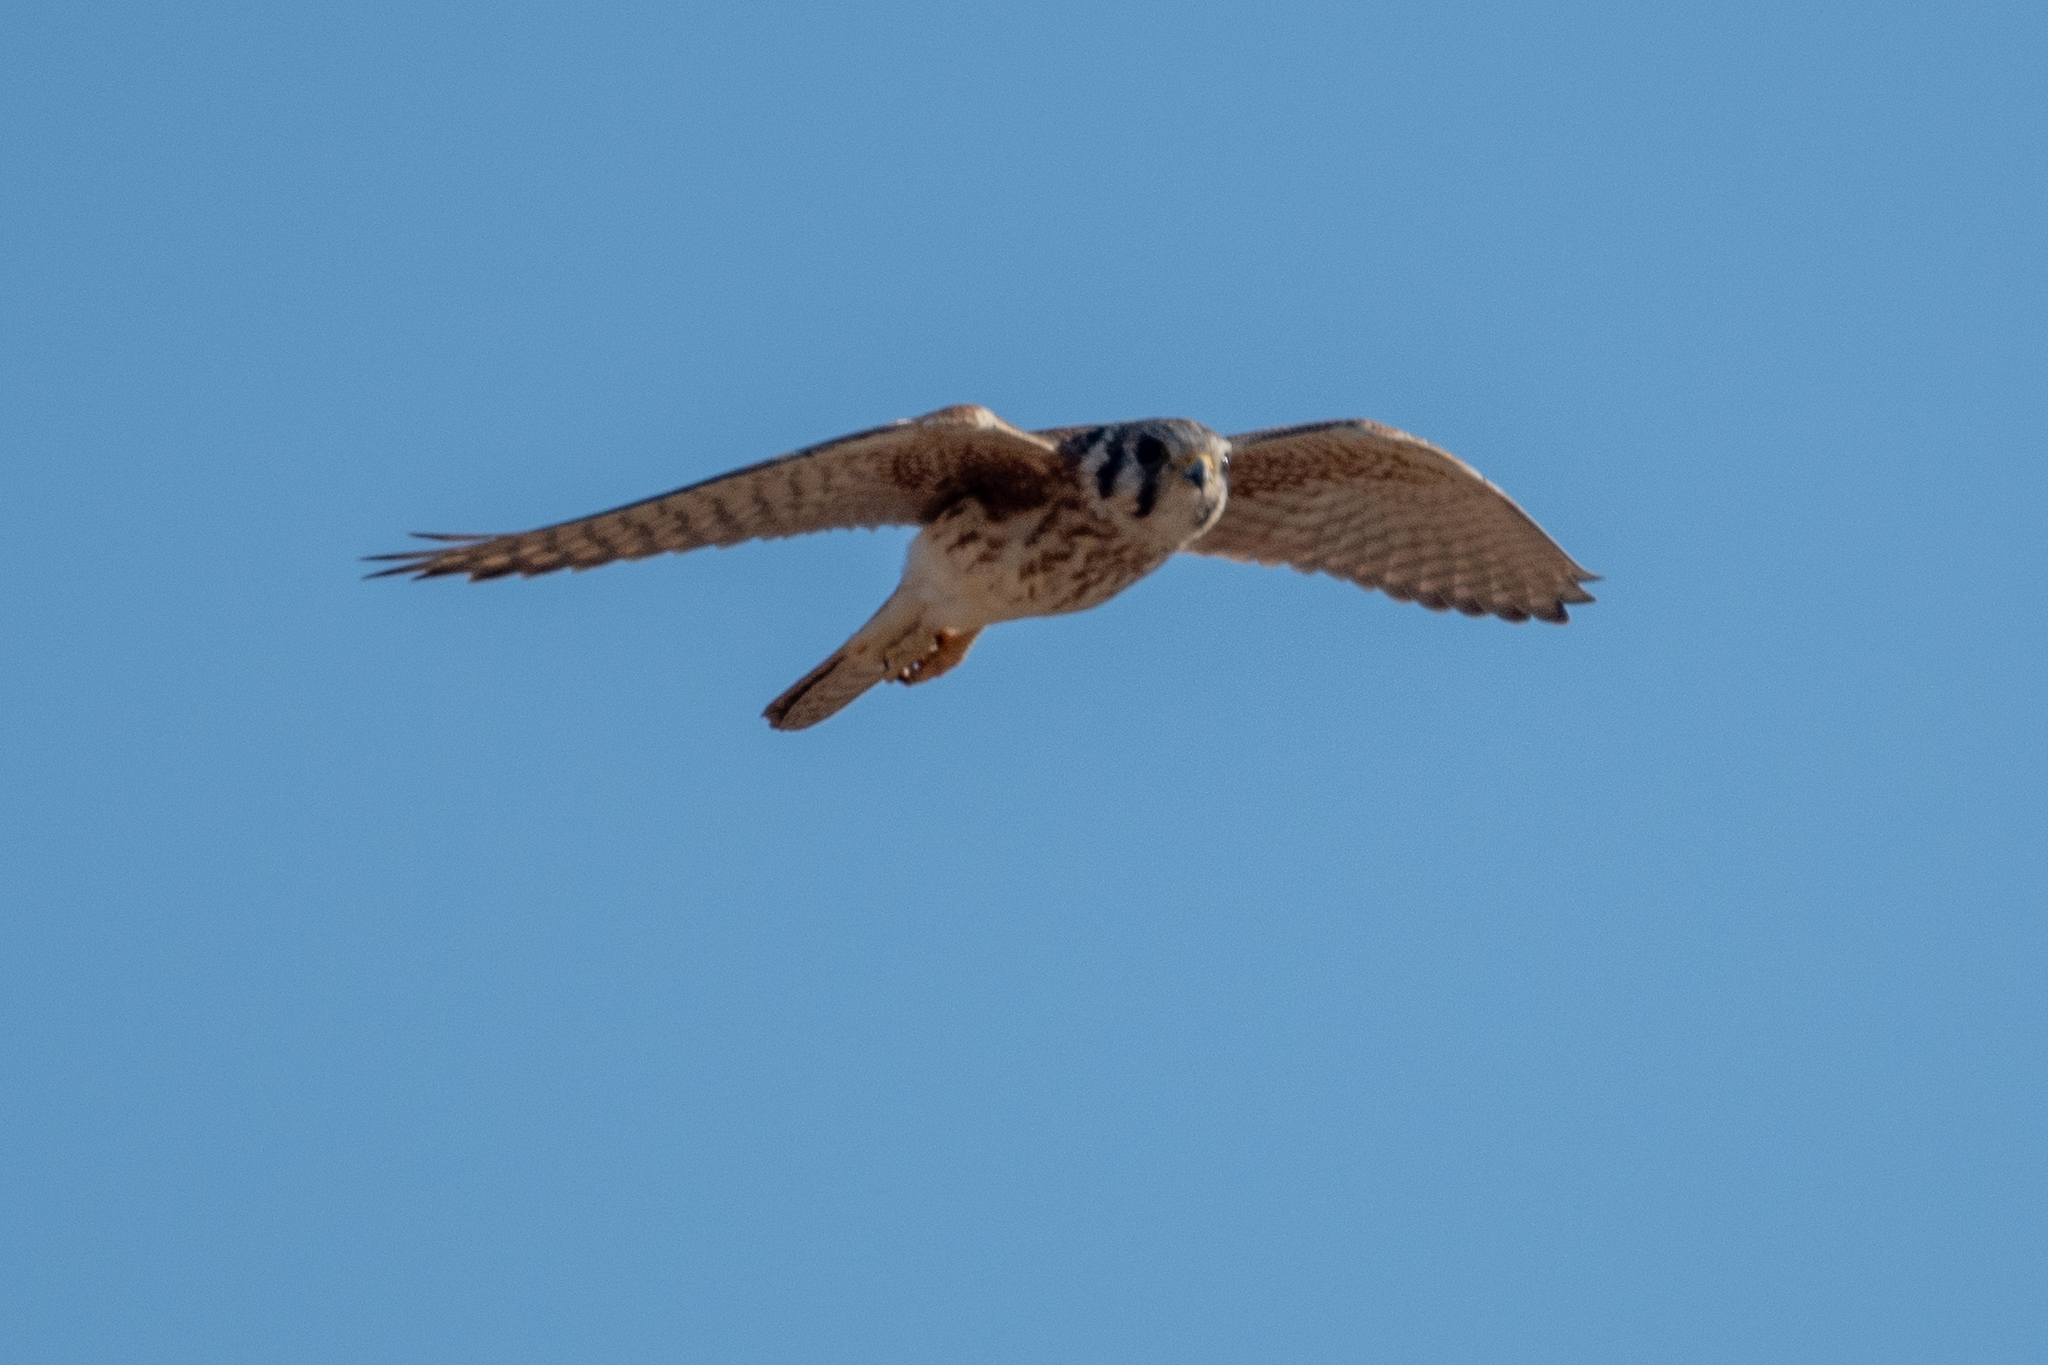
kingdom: Animalia
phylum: Chordata
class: Aves
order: Falconiformes
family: Falconidae
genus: Falco
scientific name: Falco sparverius
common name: American kestrel
